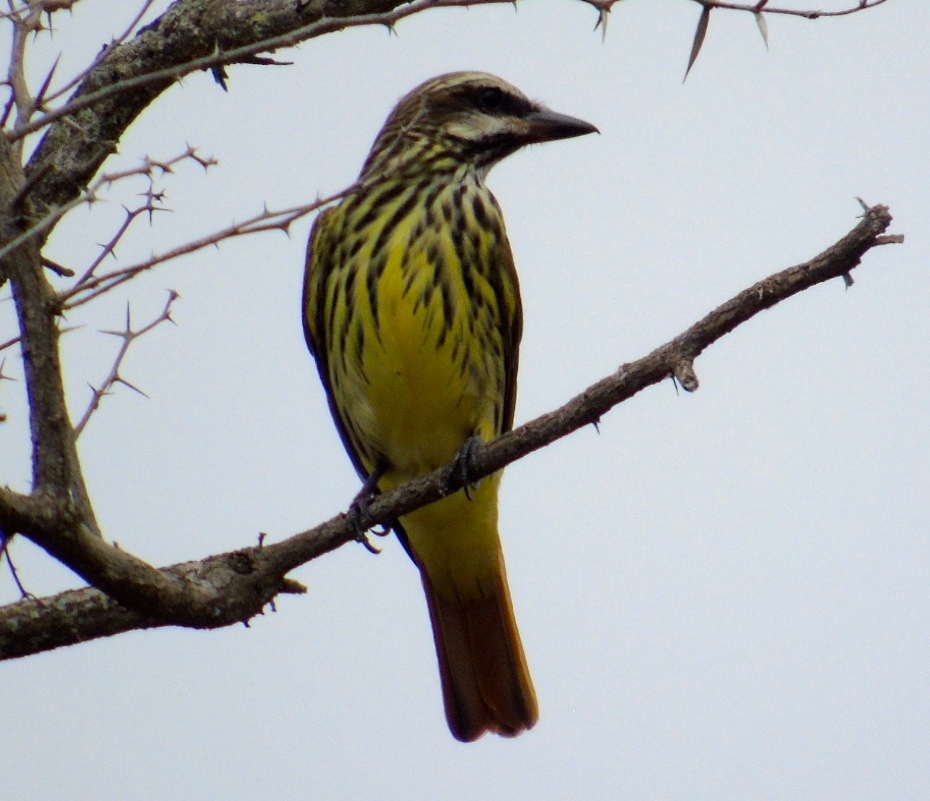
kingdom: Animalia
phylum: Chordata
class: Aves
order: Passeriformes
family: Tyrannidae
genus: Myiodynastes
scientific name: Myiodynastes luteiventris
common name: Sulphur-bellied flycatcher
